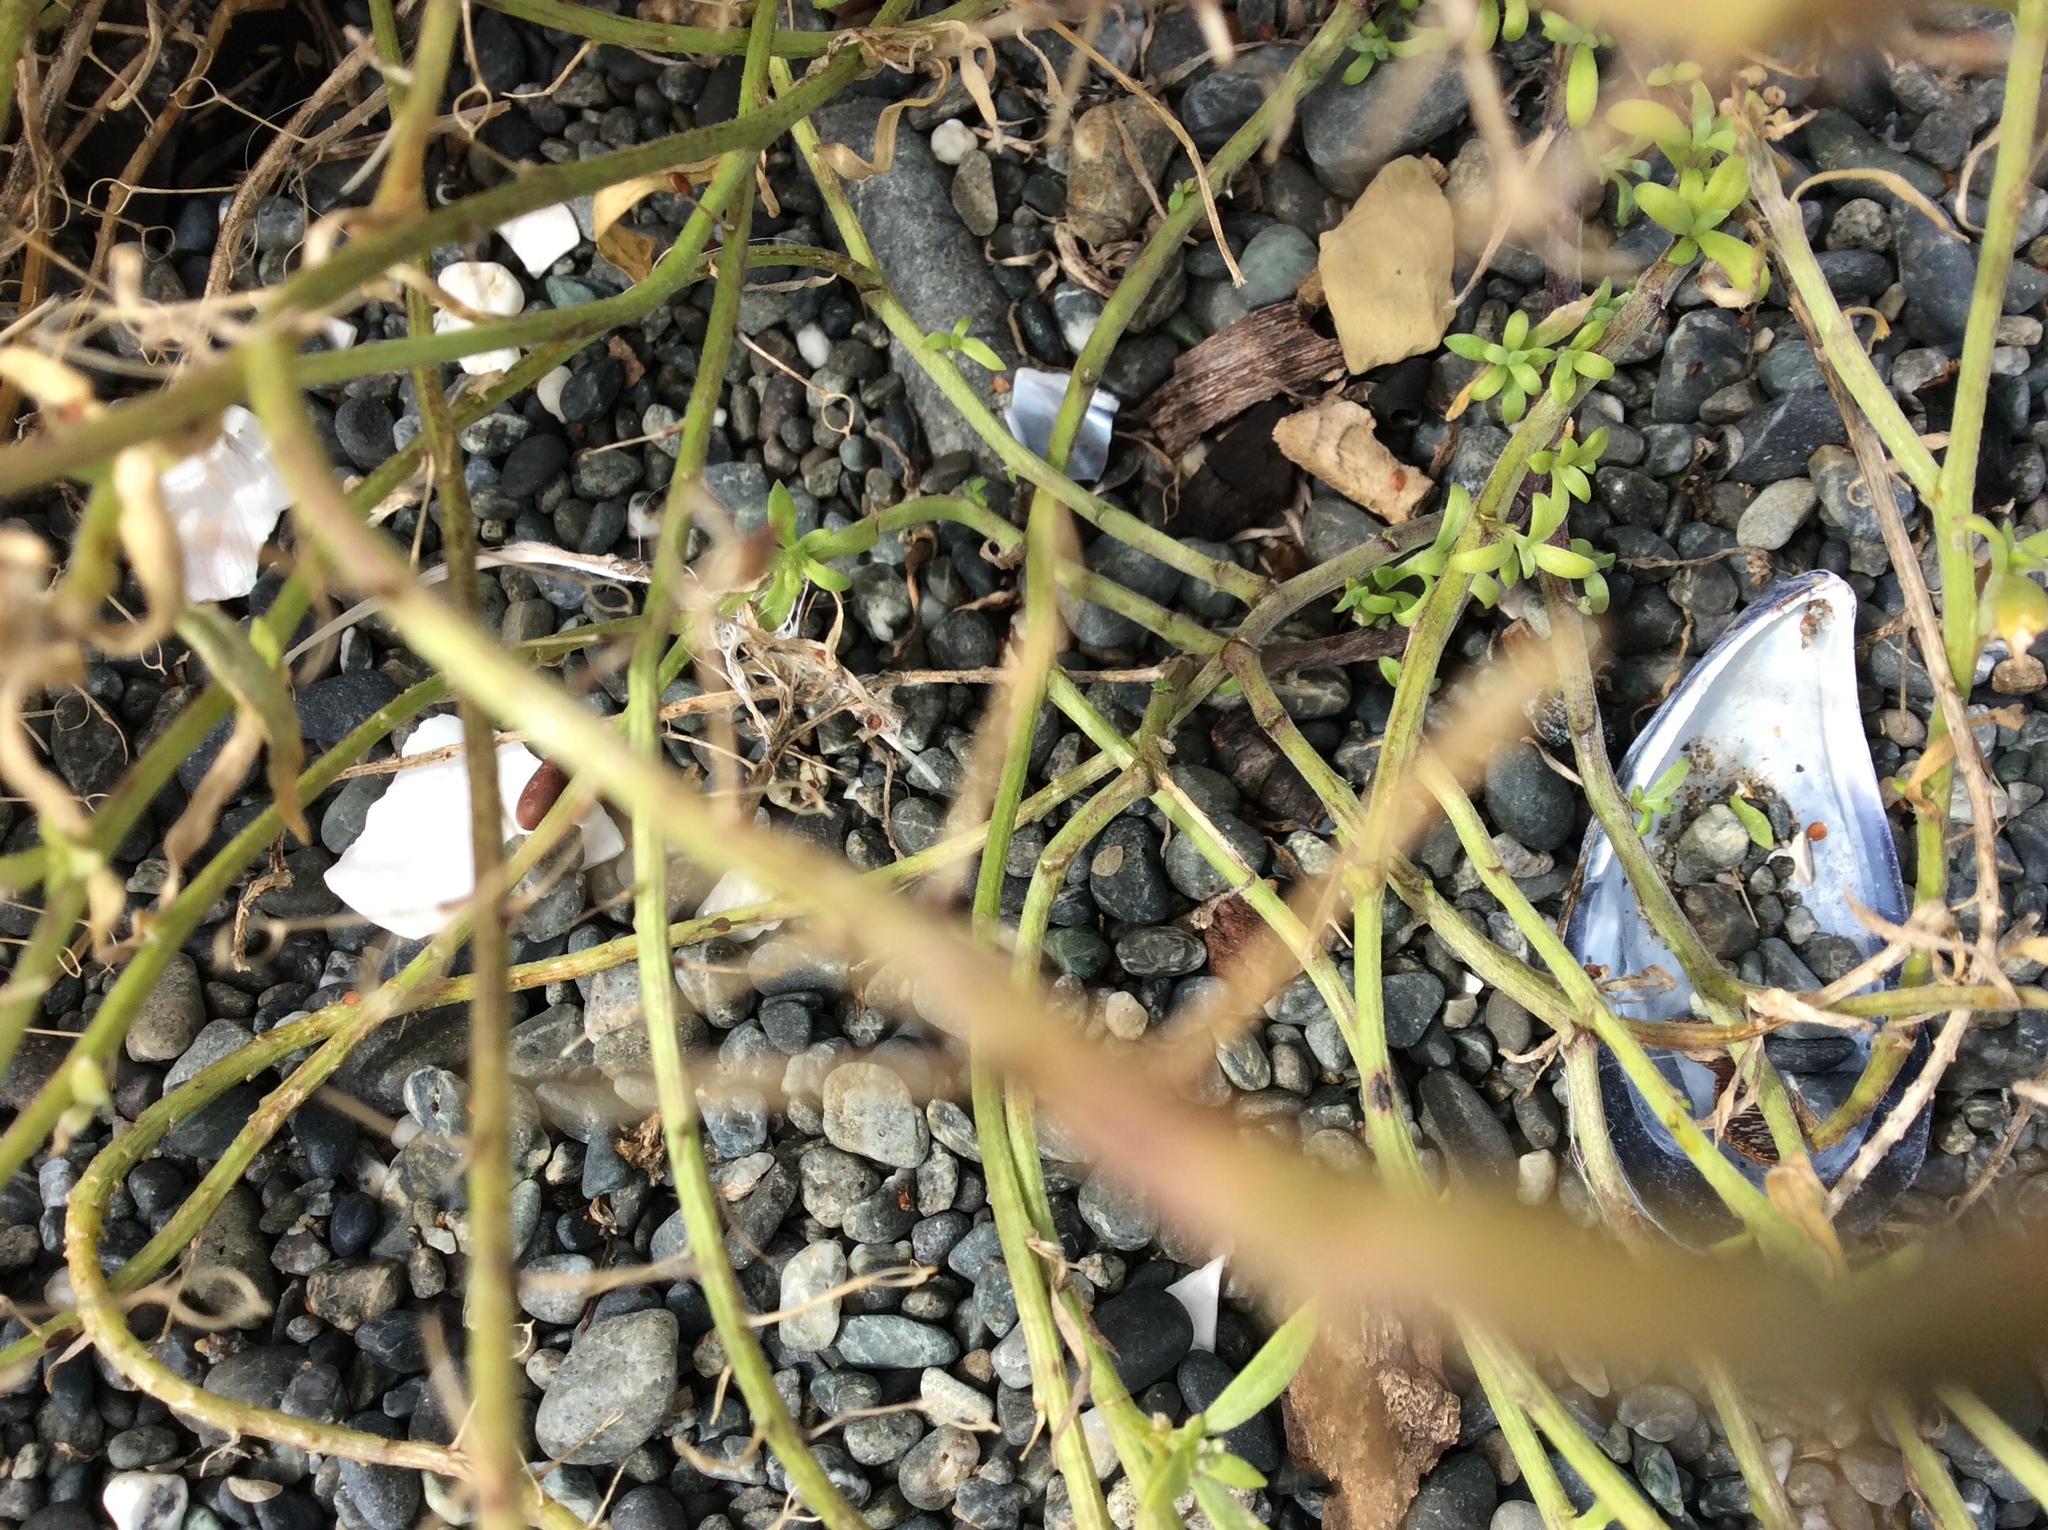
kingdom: Plantae
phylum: Tracheophyta
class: Magnoliopsida
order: Brassicales
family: Brassicaceae
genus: Lobularia
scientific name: Lobularia maritima
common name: Sweet alison
